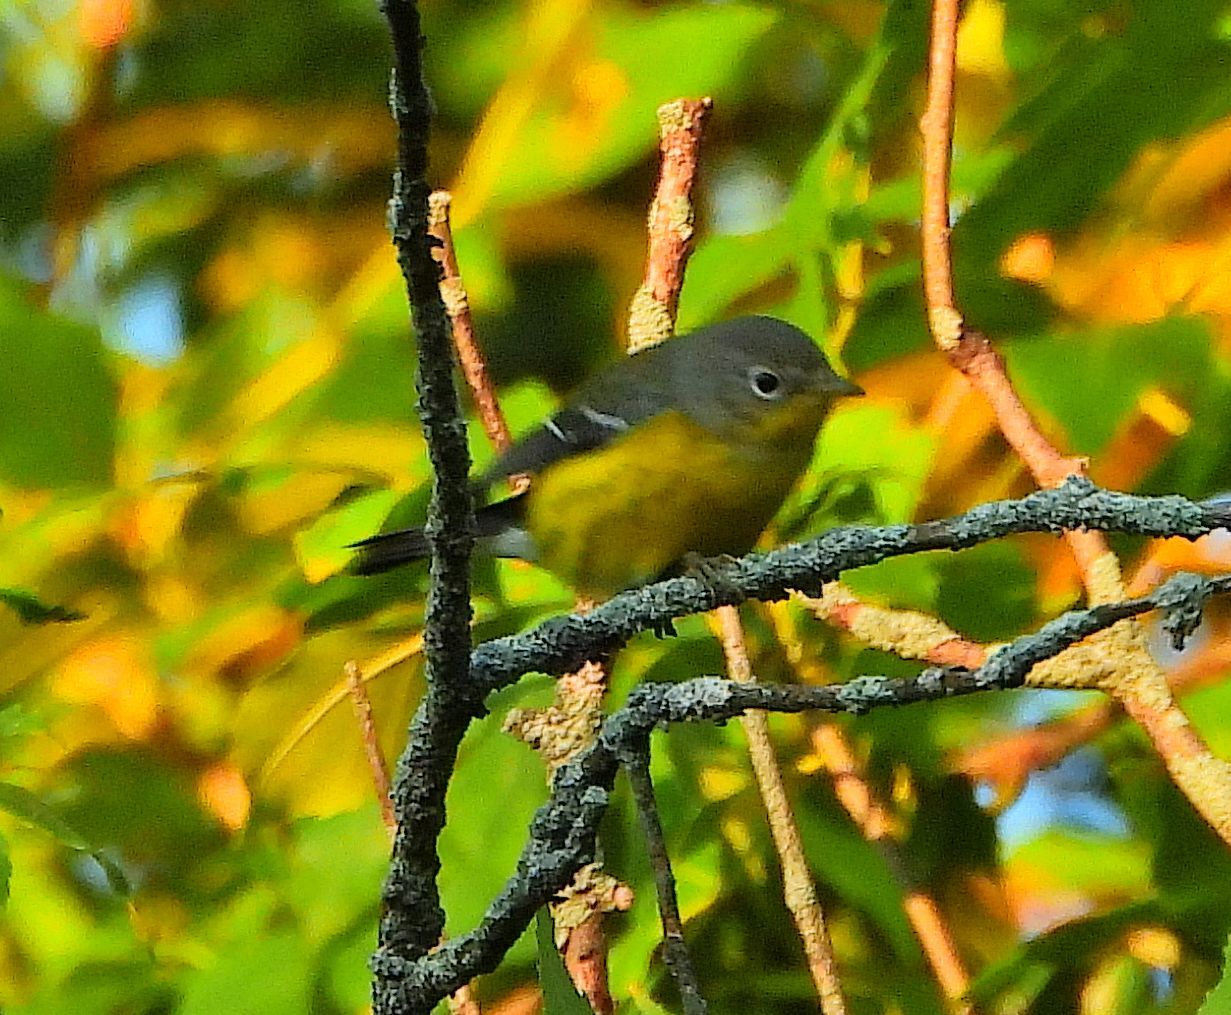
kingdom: Animalia
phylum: Chordata
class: Aves
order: Passeriformes
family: Parulidae
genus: Setophaga
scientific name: Setophaga magnolia
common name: Magnolia warbler
